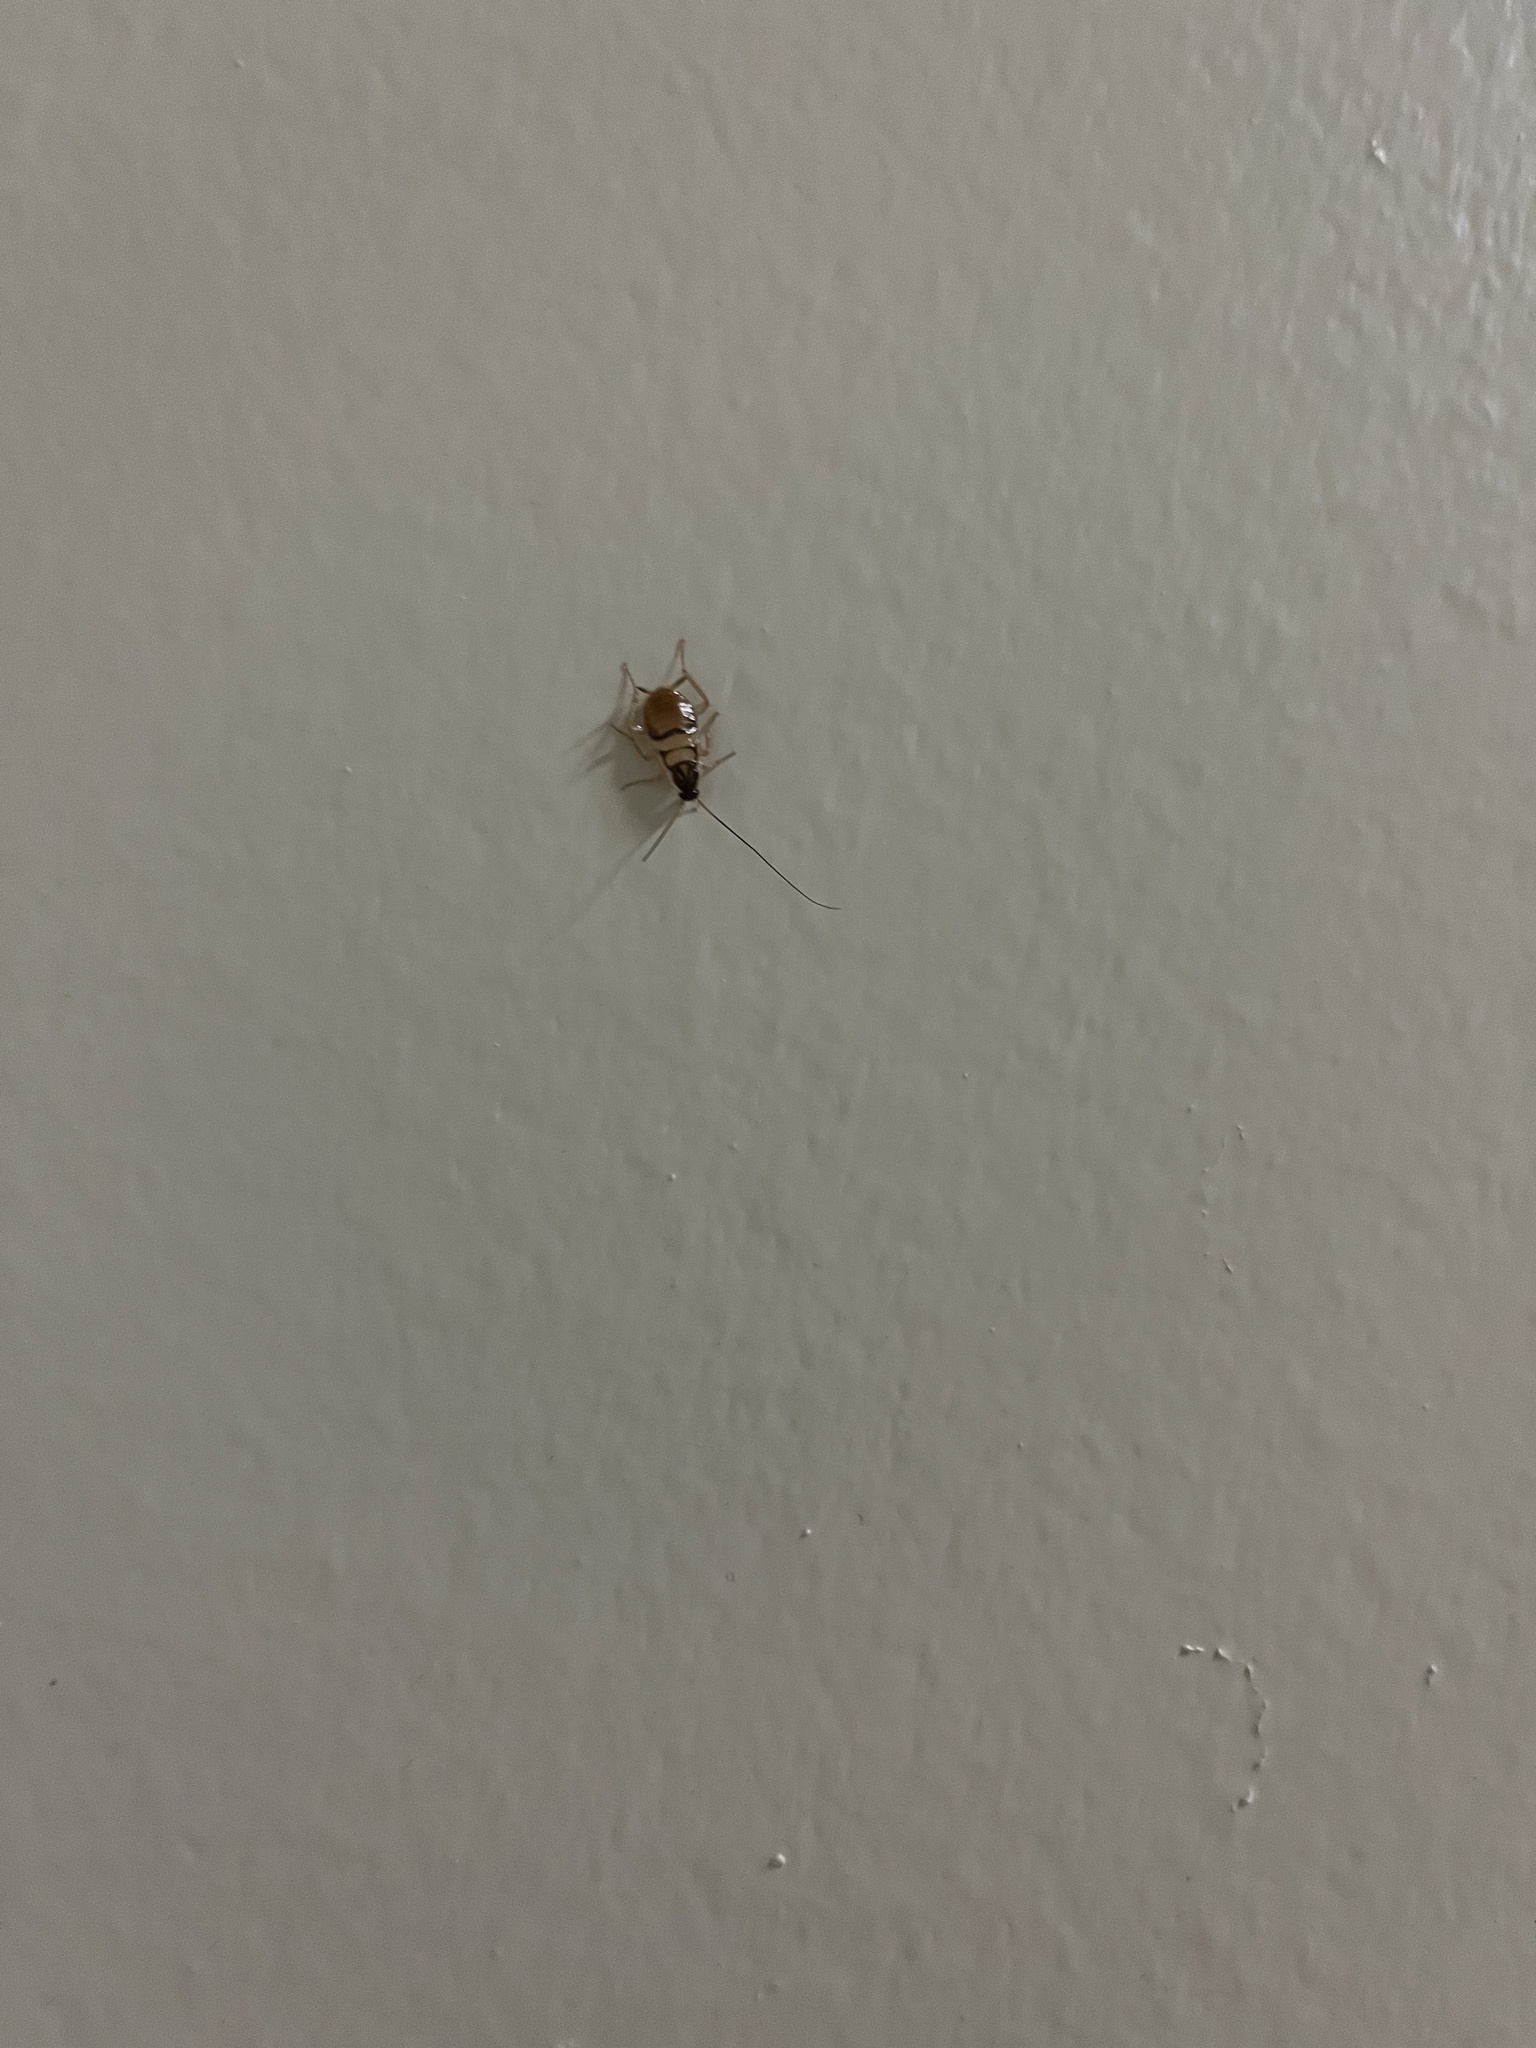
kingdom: Animalia
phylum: Arthropoda
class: Insecta
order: Blattodea
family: Ectobiidae
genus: Supella
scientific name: Supella longipalpa
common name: Brown-banded cockroach
